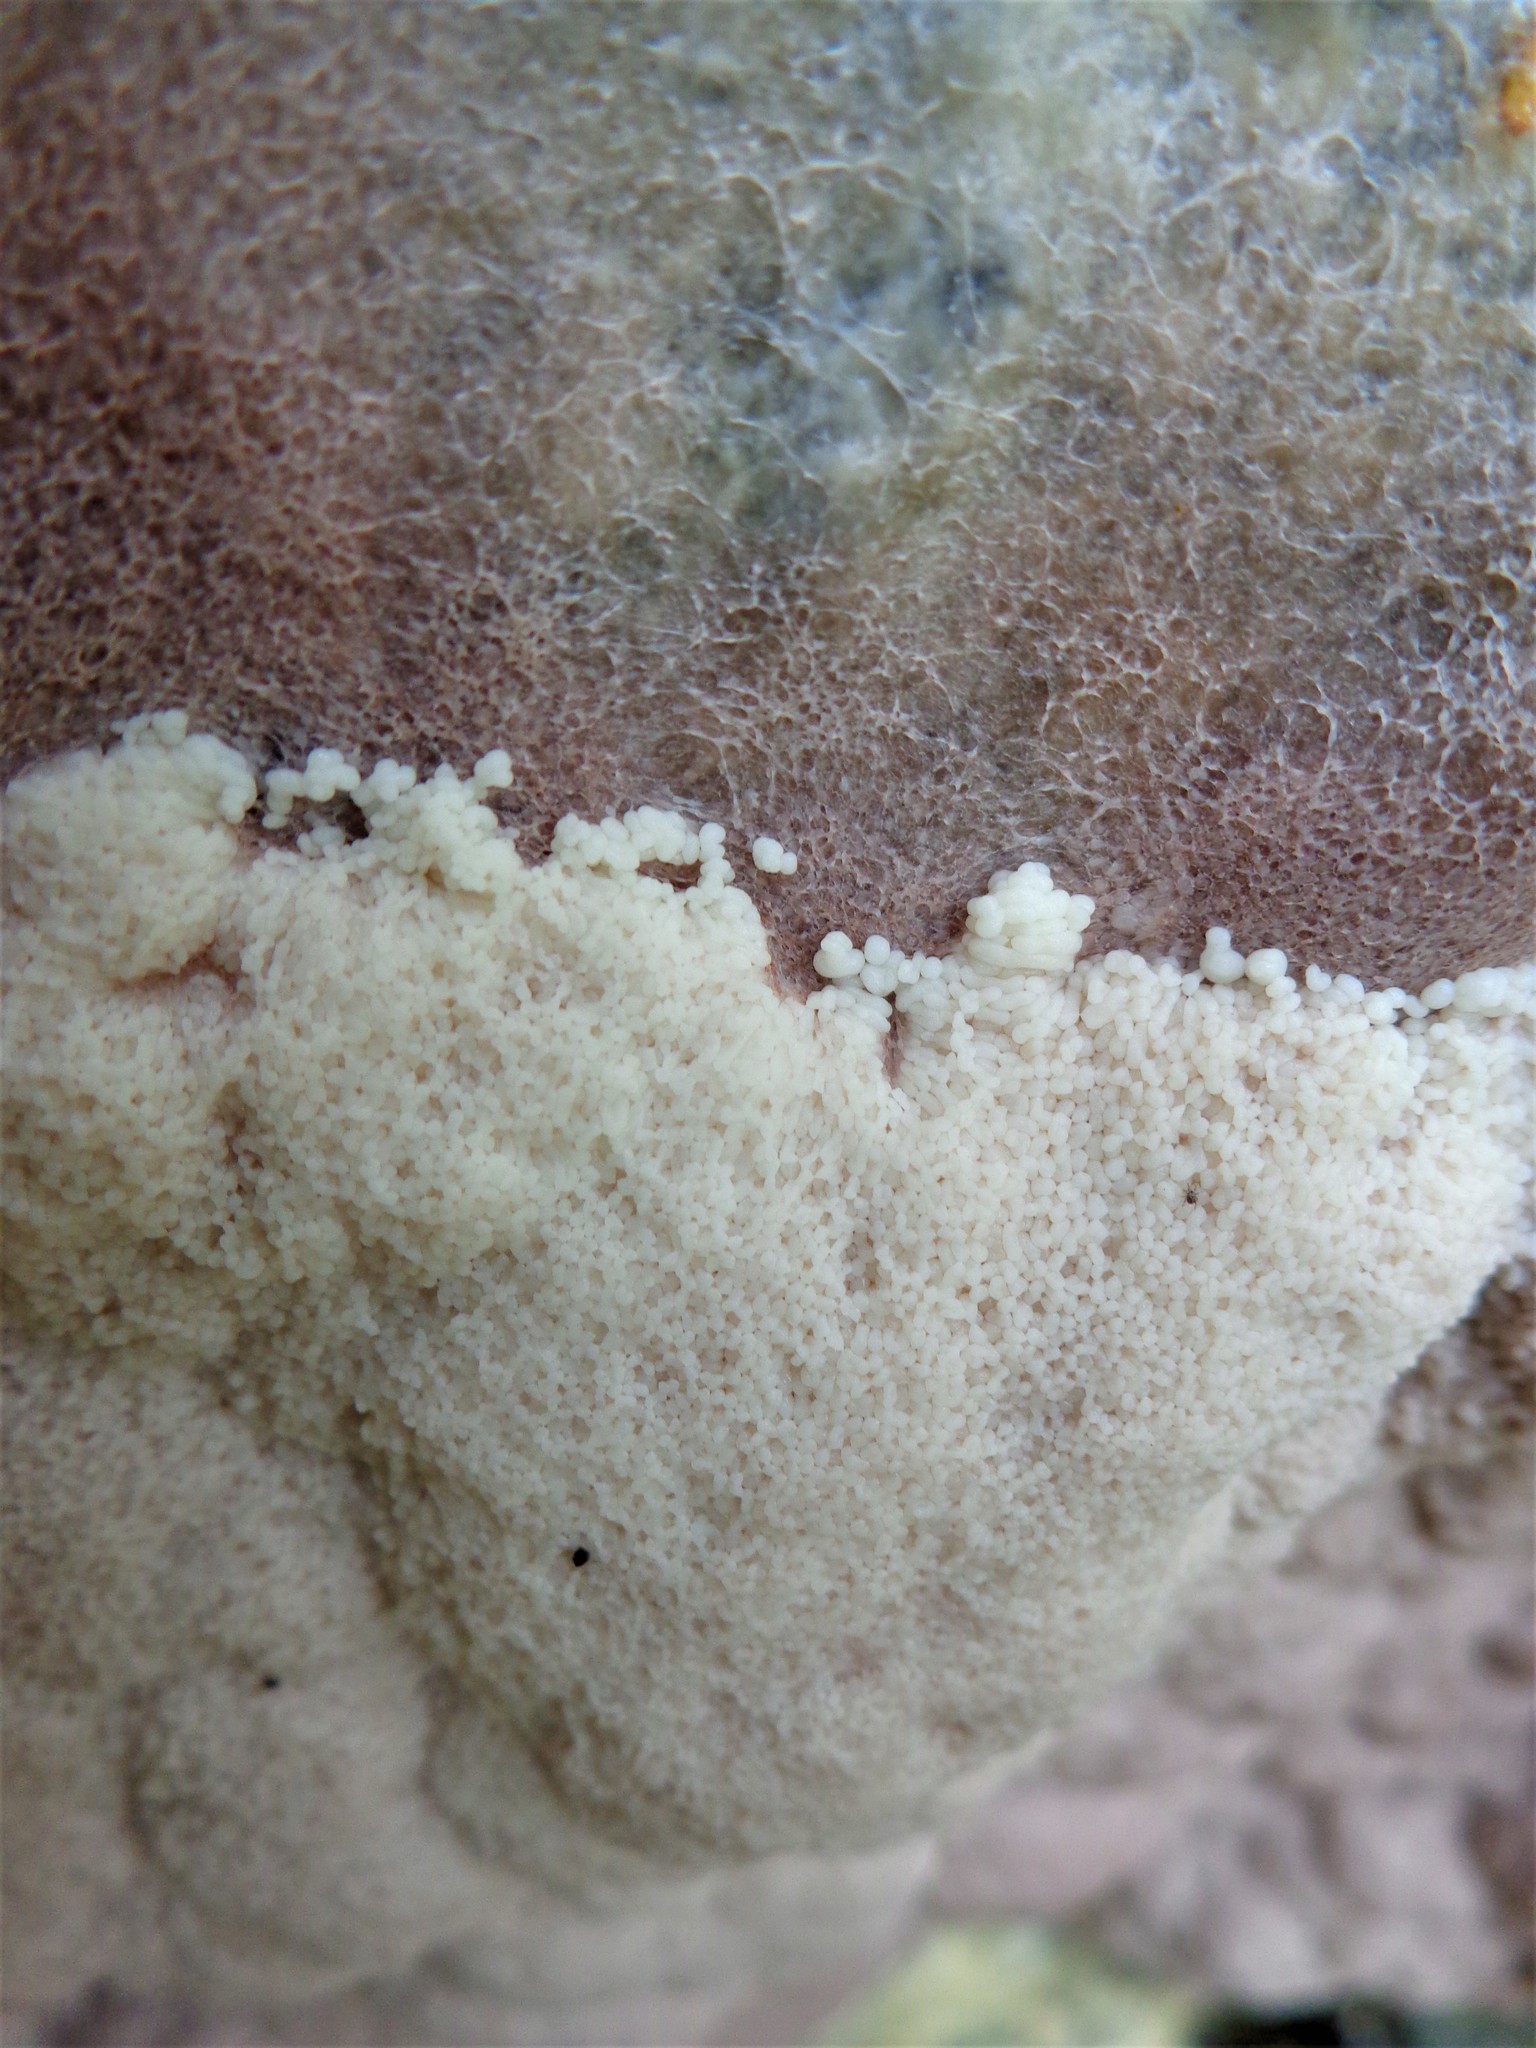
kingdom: Protozoa
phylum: Mycetozoa
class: Myxomycetes
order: Stemonitidales
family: Stemonitidaceae
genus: Brefeldia
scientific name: Brefeldia maxima
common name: Tapioca slime mold
